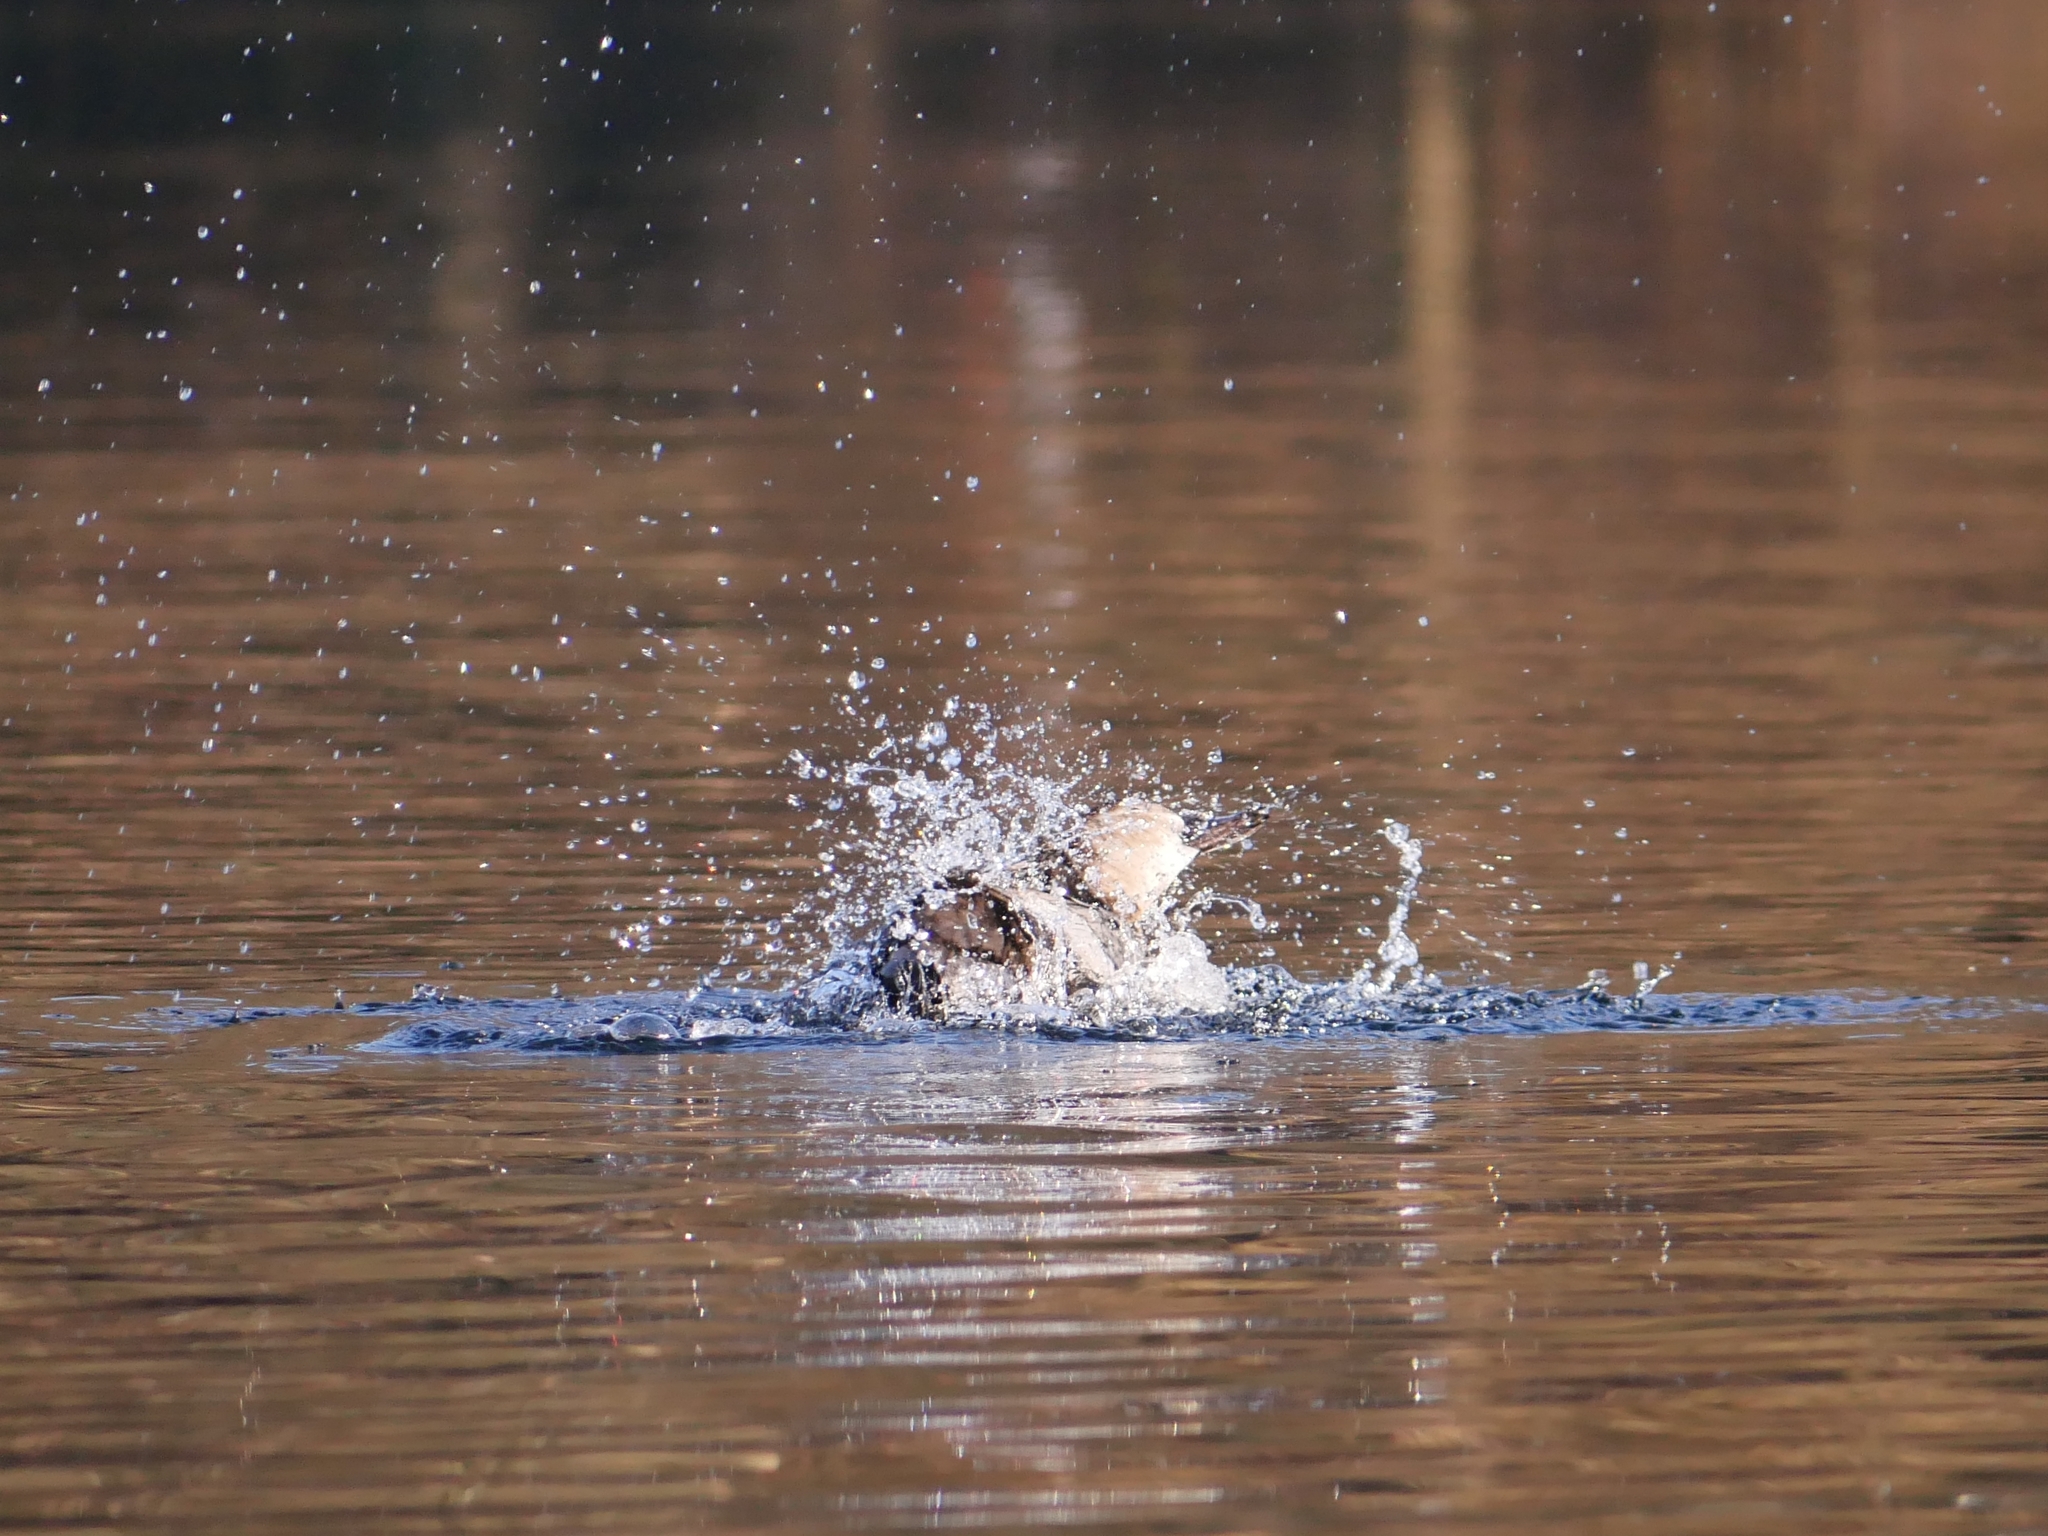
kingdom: Animalia
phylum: Chordata
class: Aves
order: Anseriformes
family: Anatidae
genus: Aythya
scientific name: Aythya ferina
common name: Common pochard
